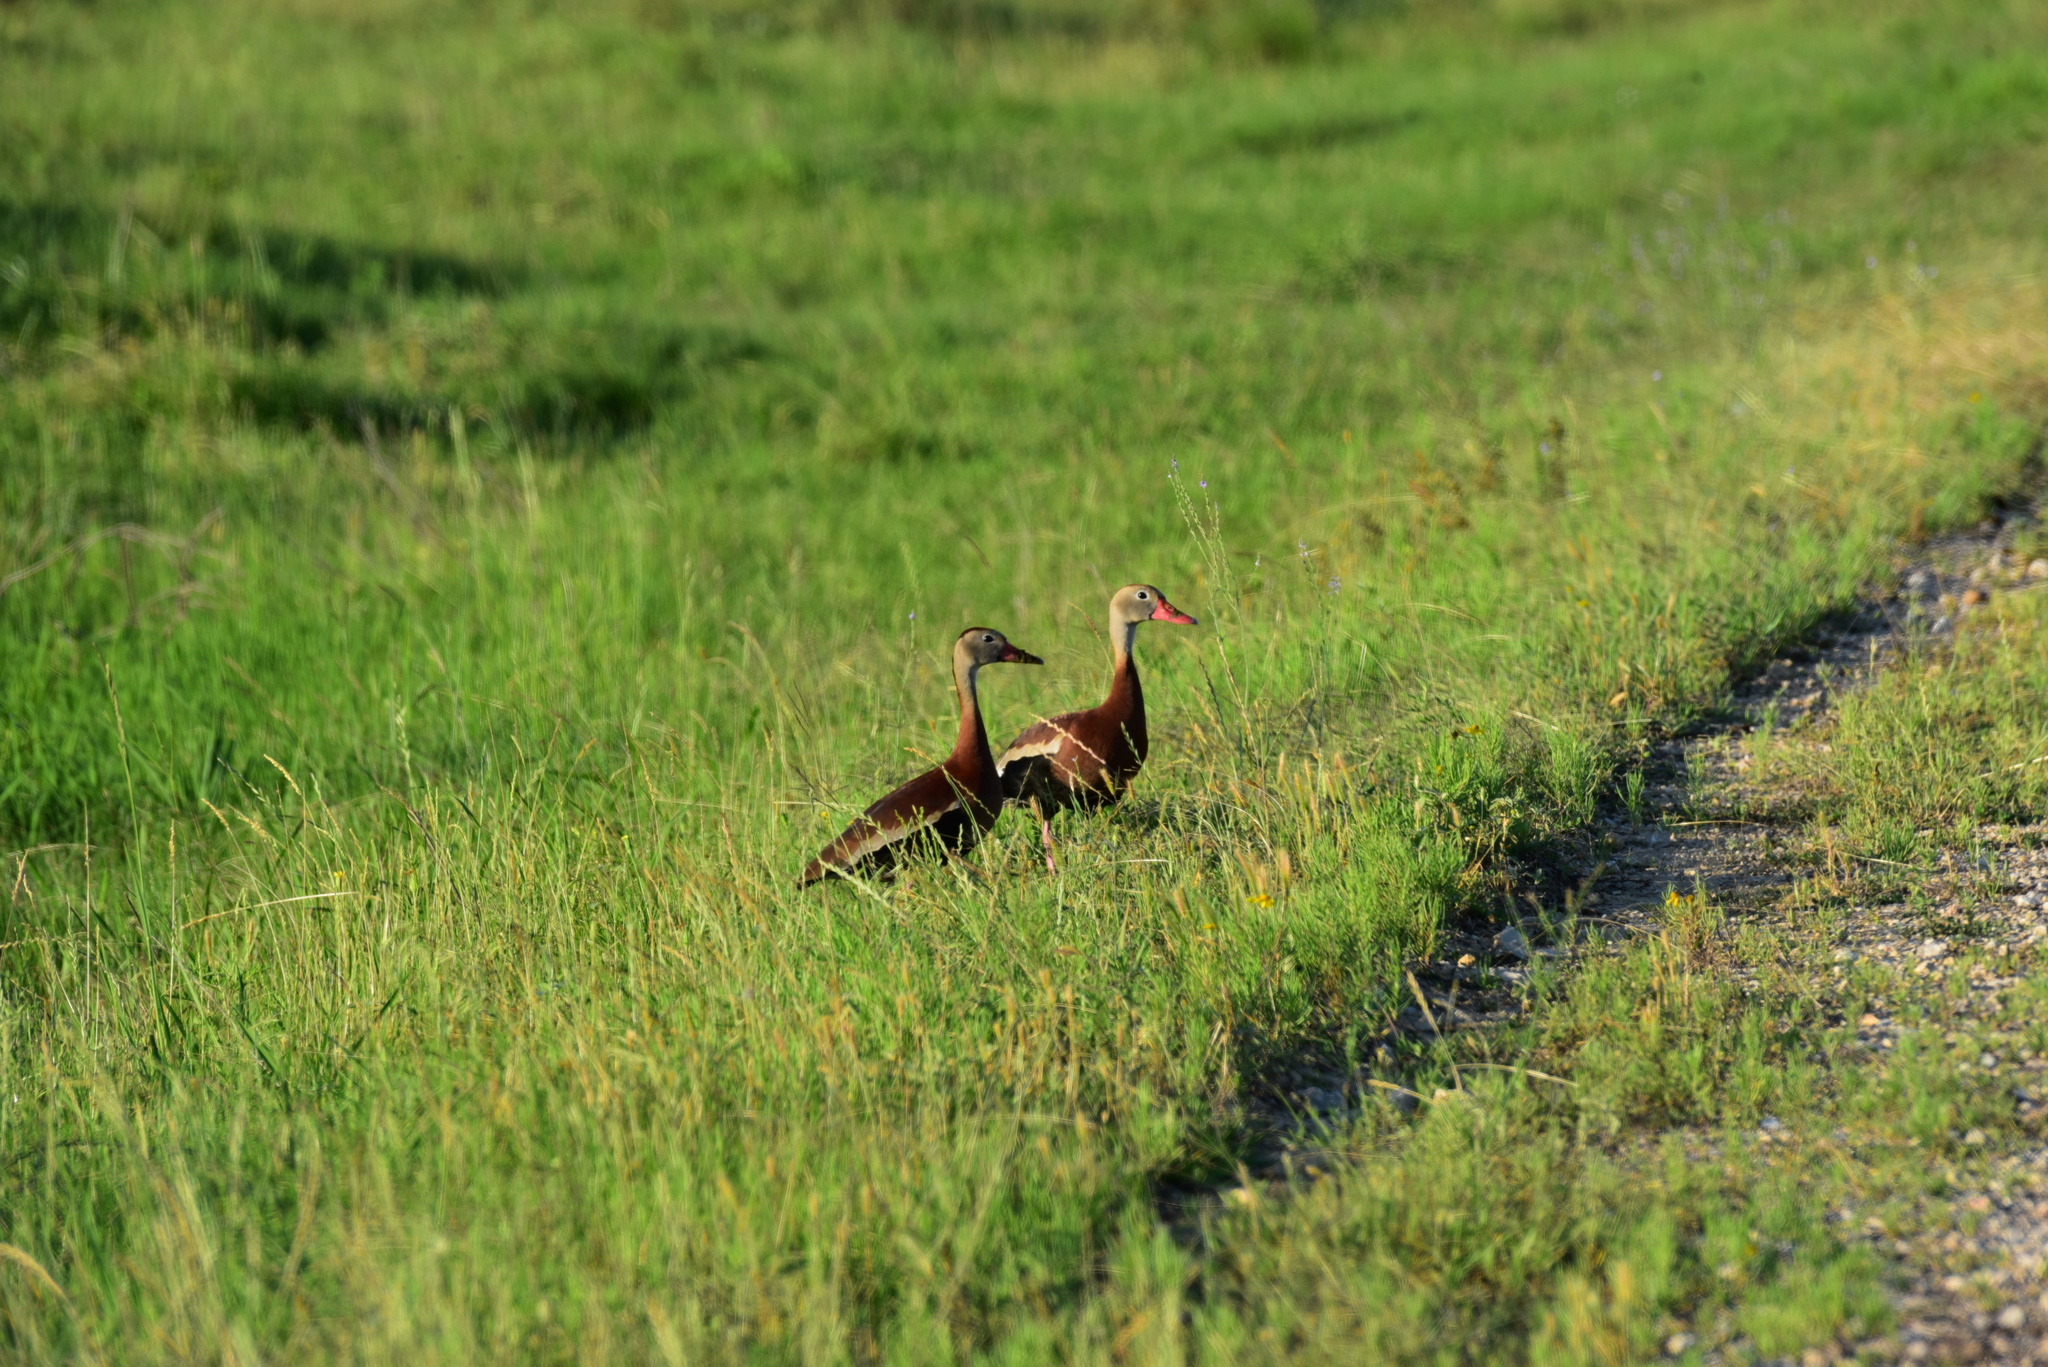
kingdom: Animalia
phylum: Chordata
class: Aves
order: Anseriformes
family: Anatidae
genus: Dendrocygna
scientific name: Dendrocygna autumnalis
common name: Black-bellied whistling duck
